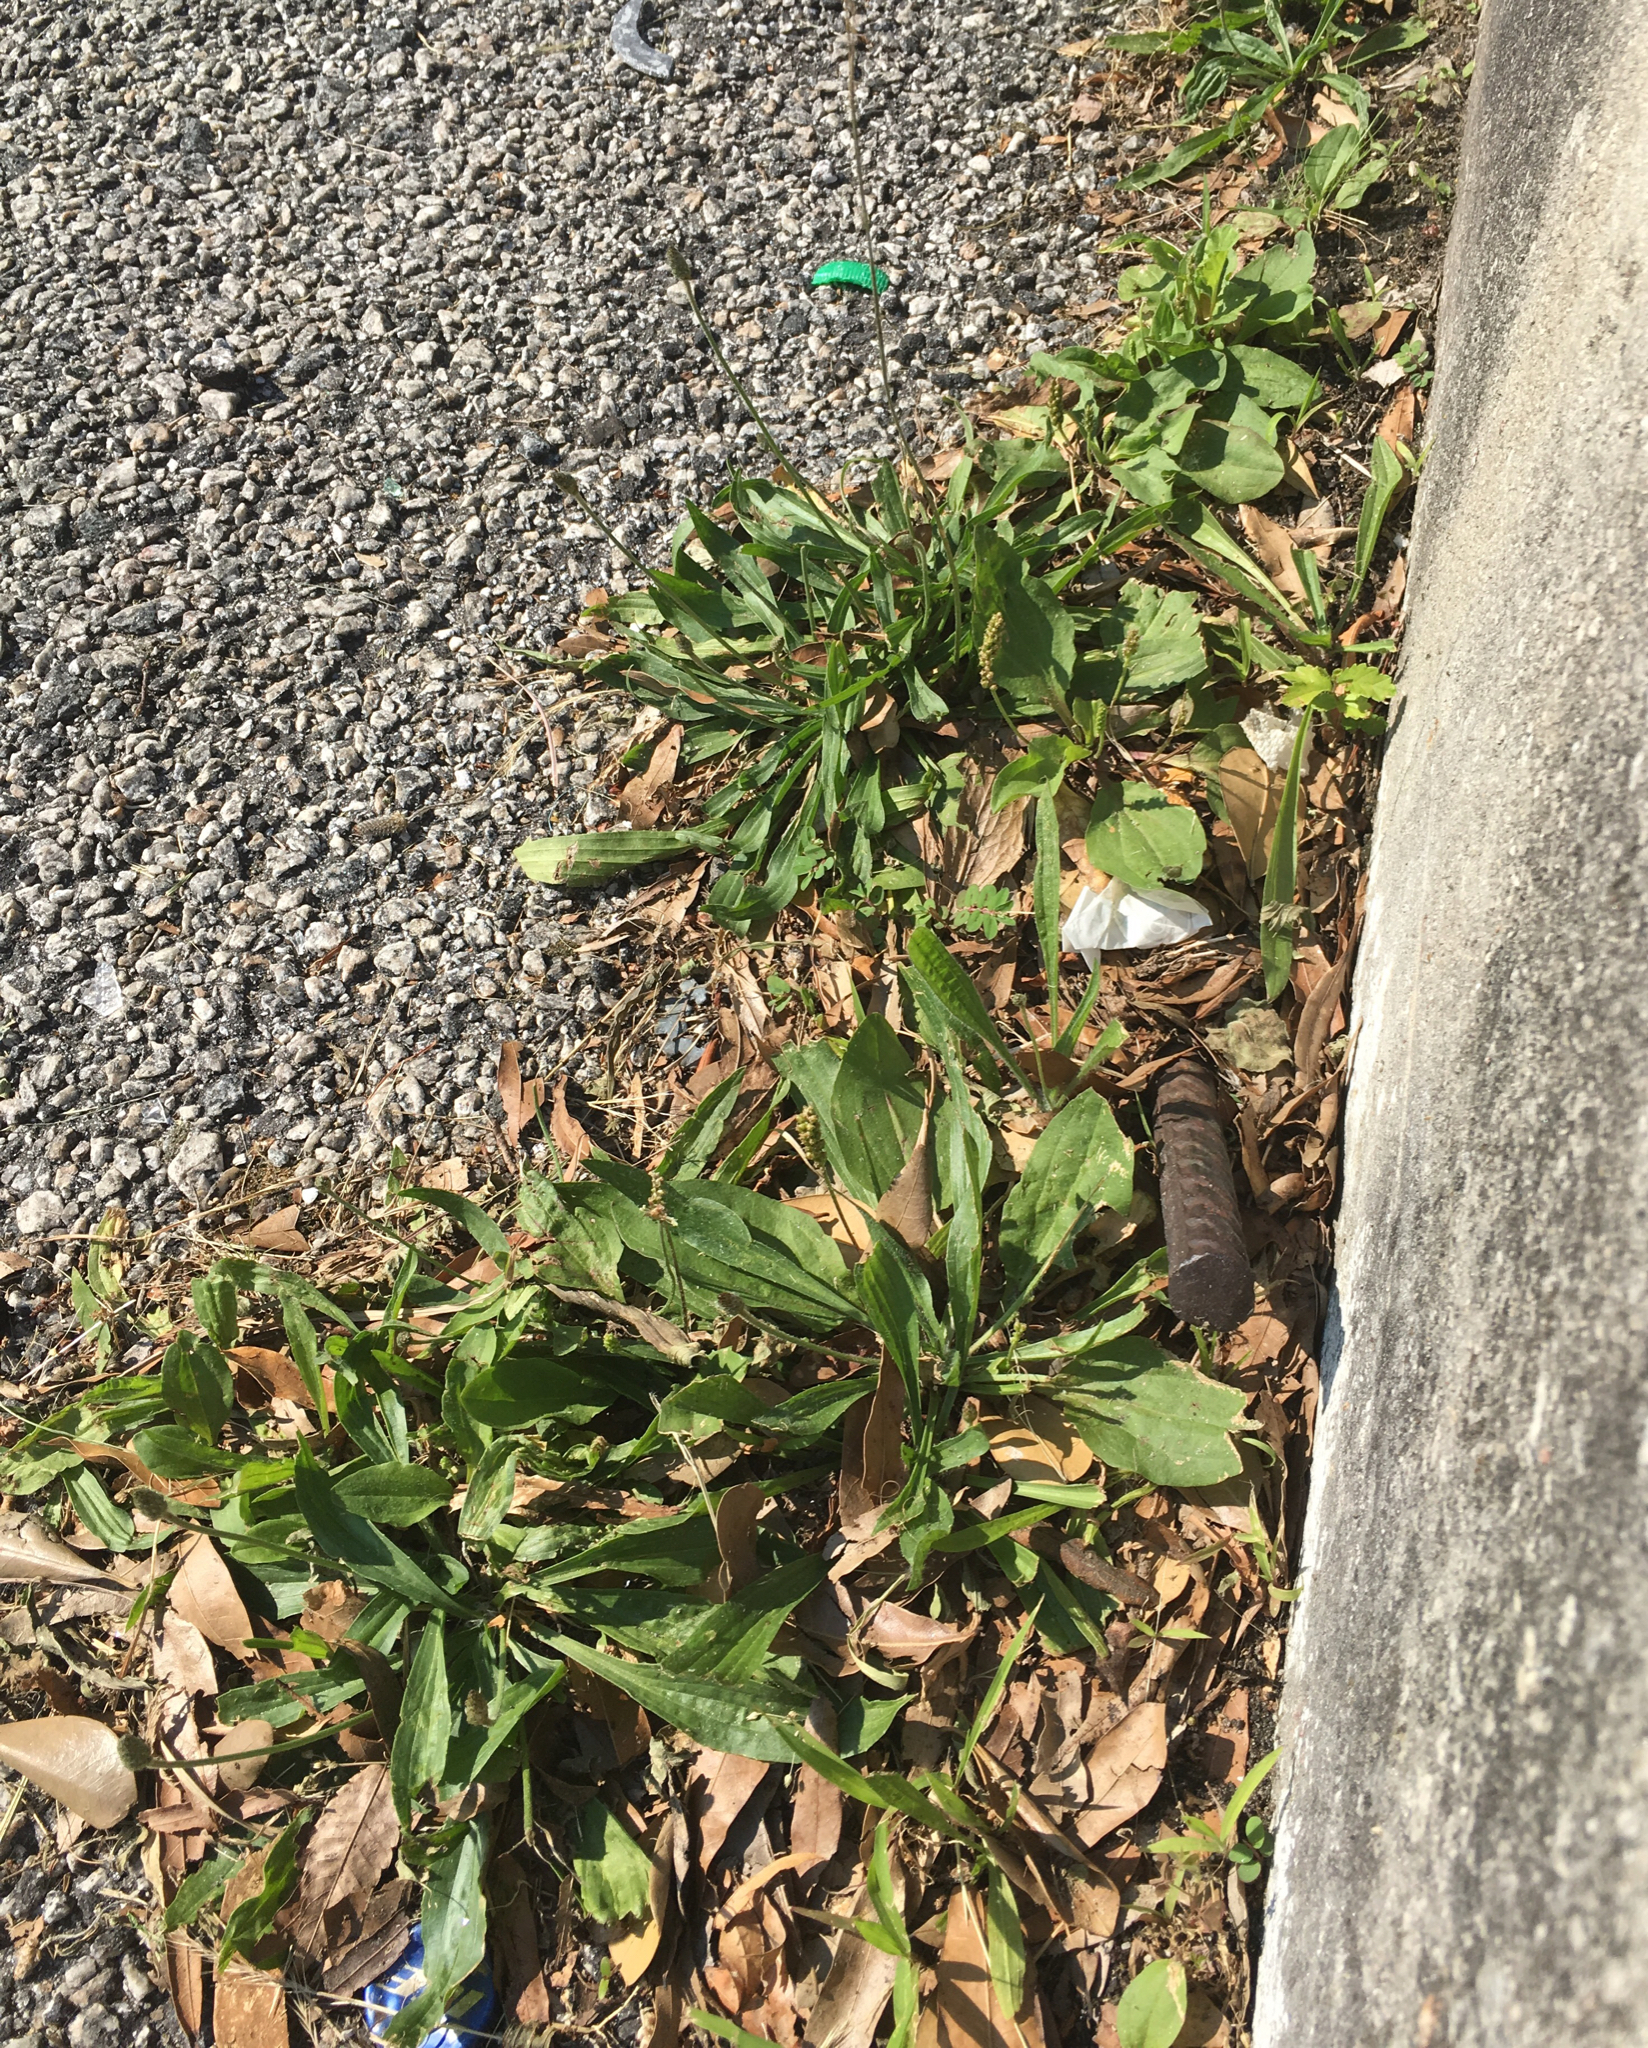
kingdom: Plantae
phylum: Tracheophyta
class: Magnoliopsida
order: Lamiales
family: Plantaginaceae
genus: Plantago
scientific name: Plantago major
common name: Common plantain
